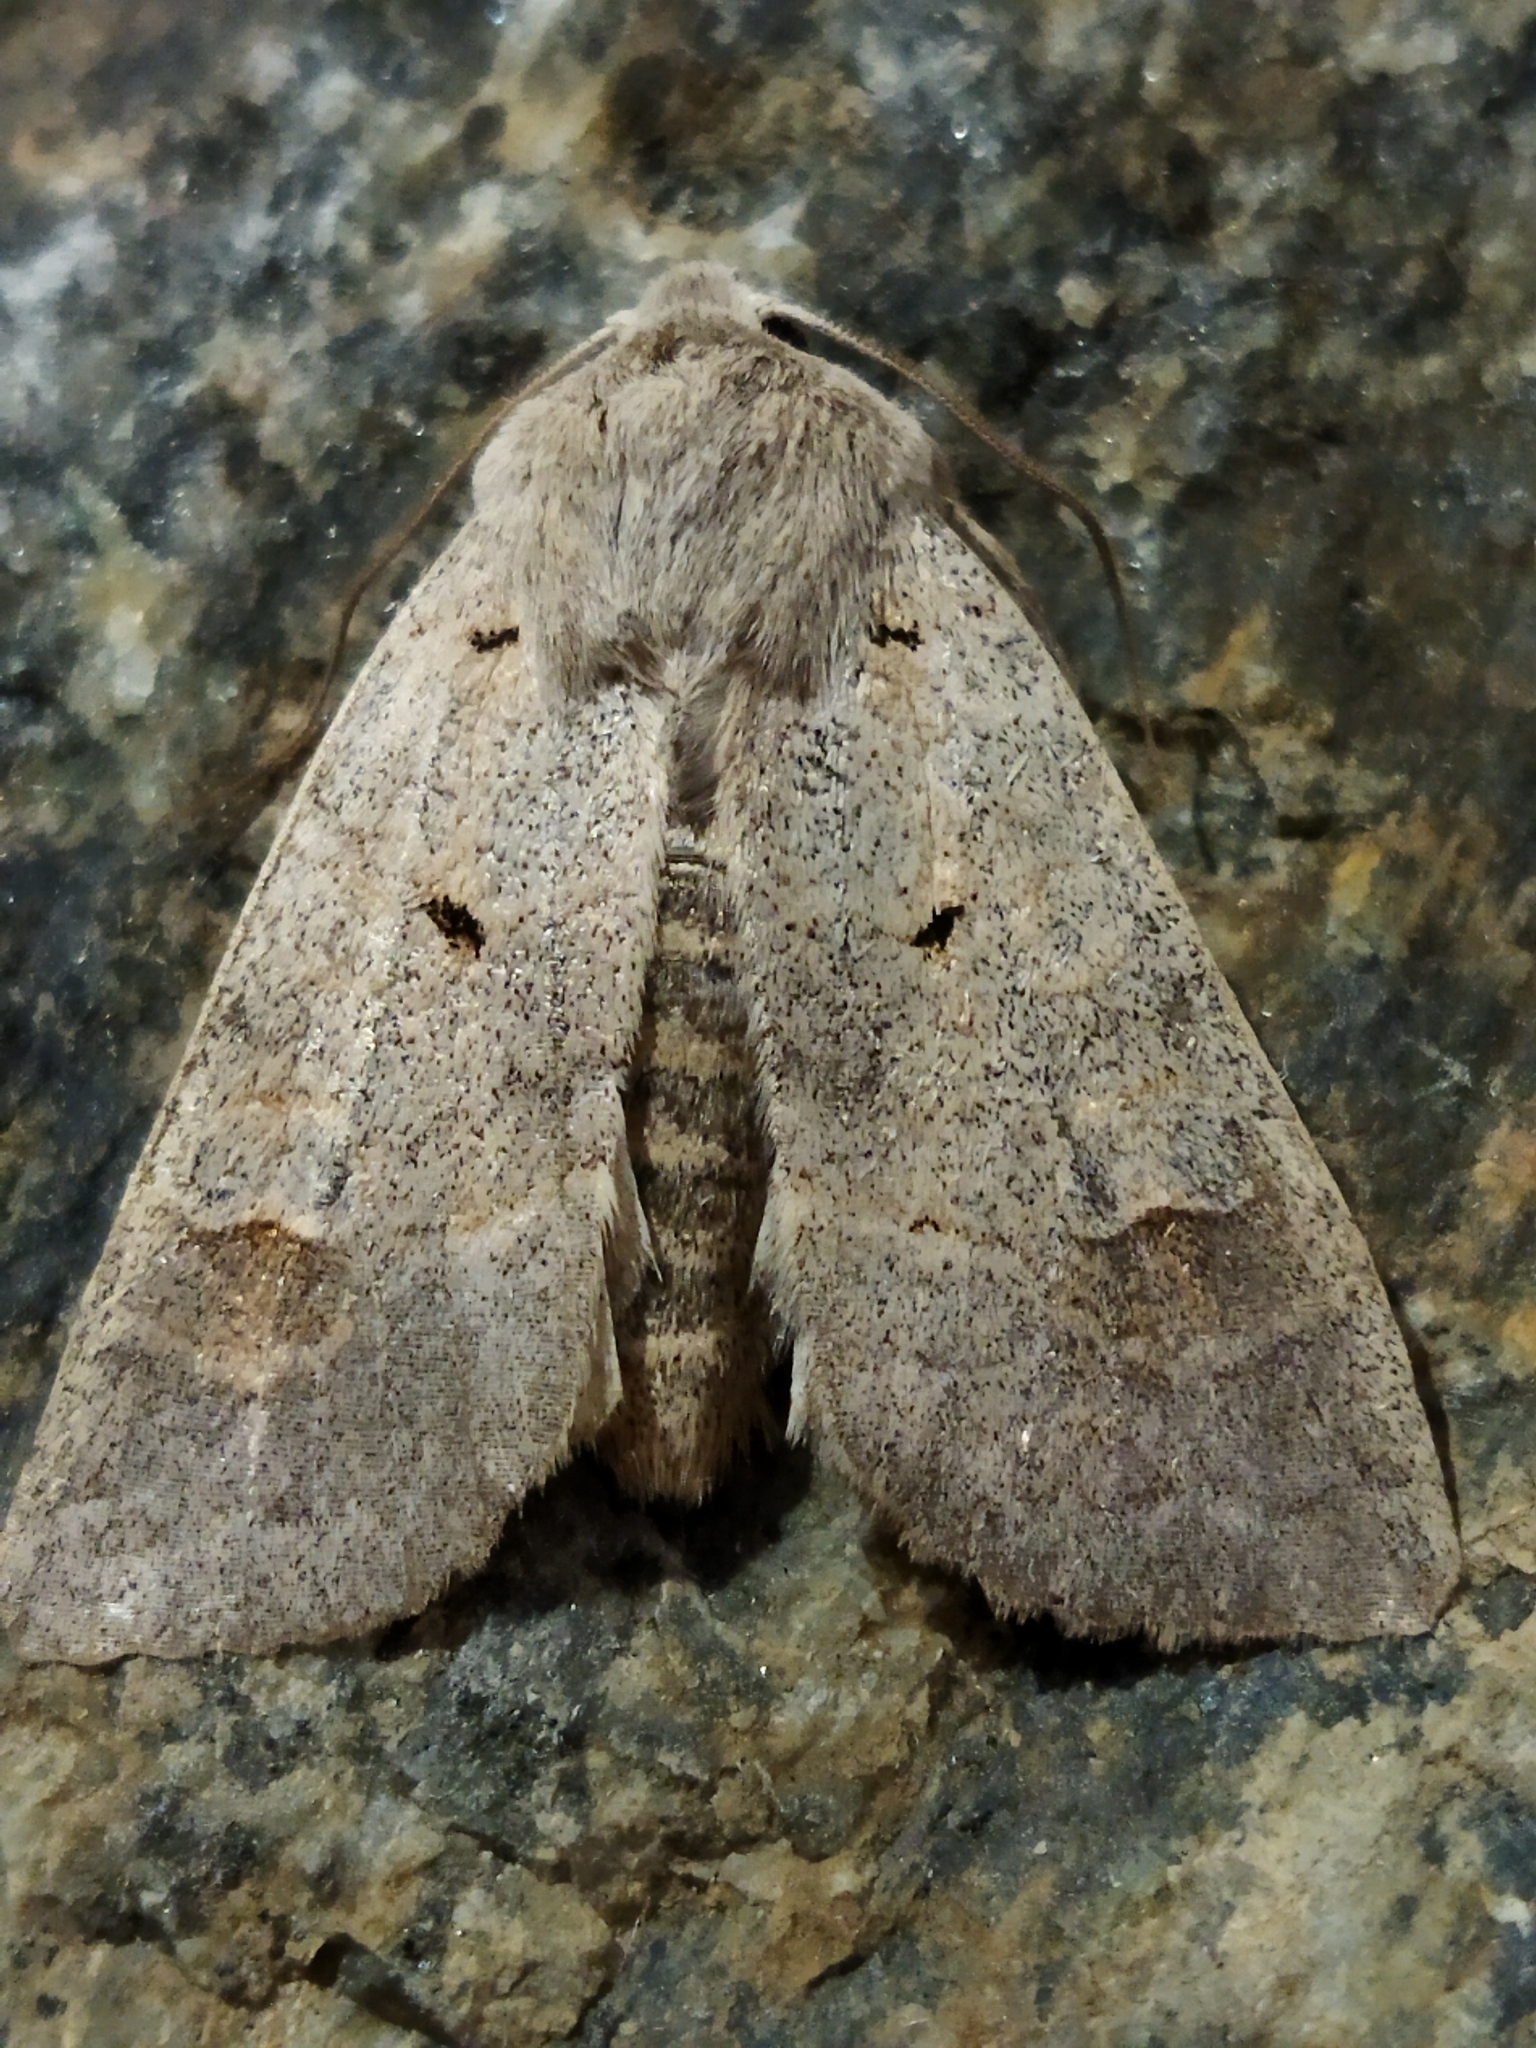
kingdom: Animalia
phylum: Arthropoda
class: Insecta
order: Lepidoptera
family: Noctuidae
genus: Ammoconia
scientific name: Ammoconia caecimacula
